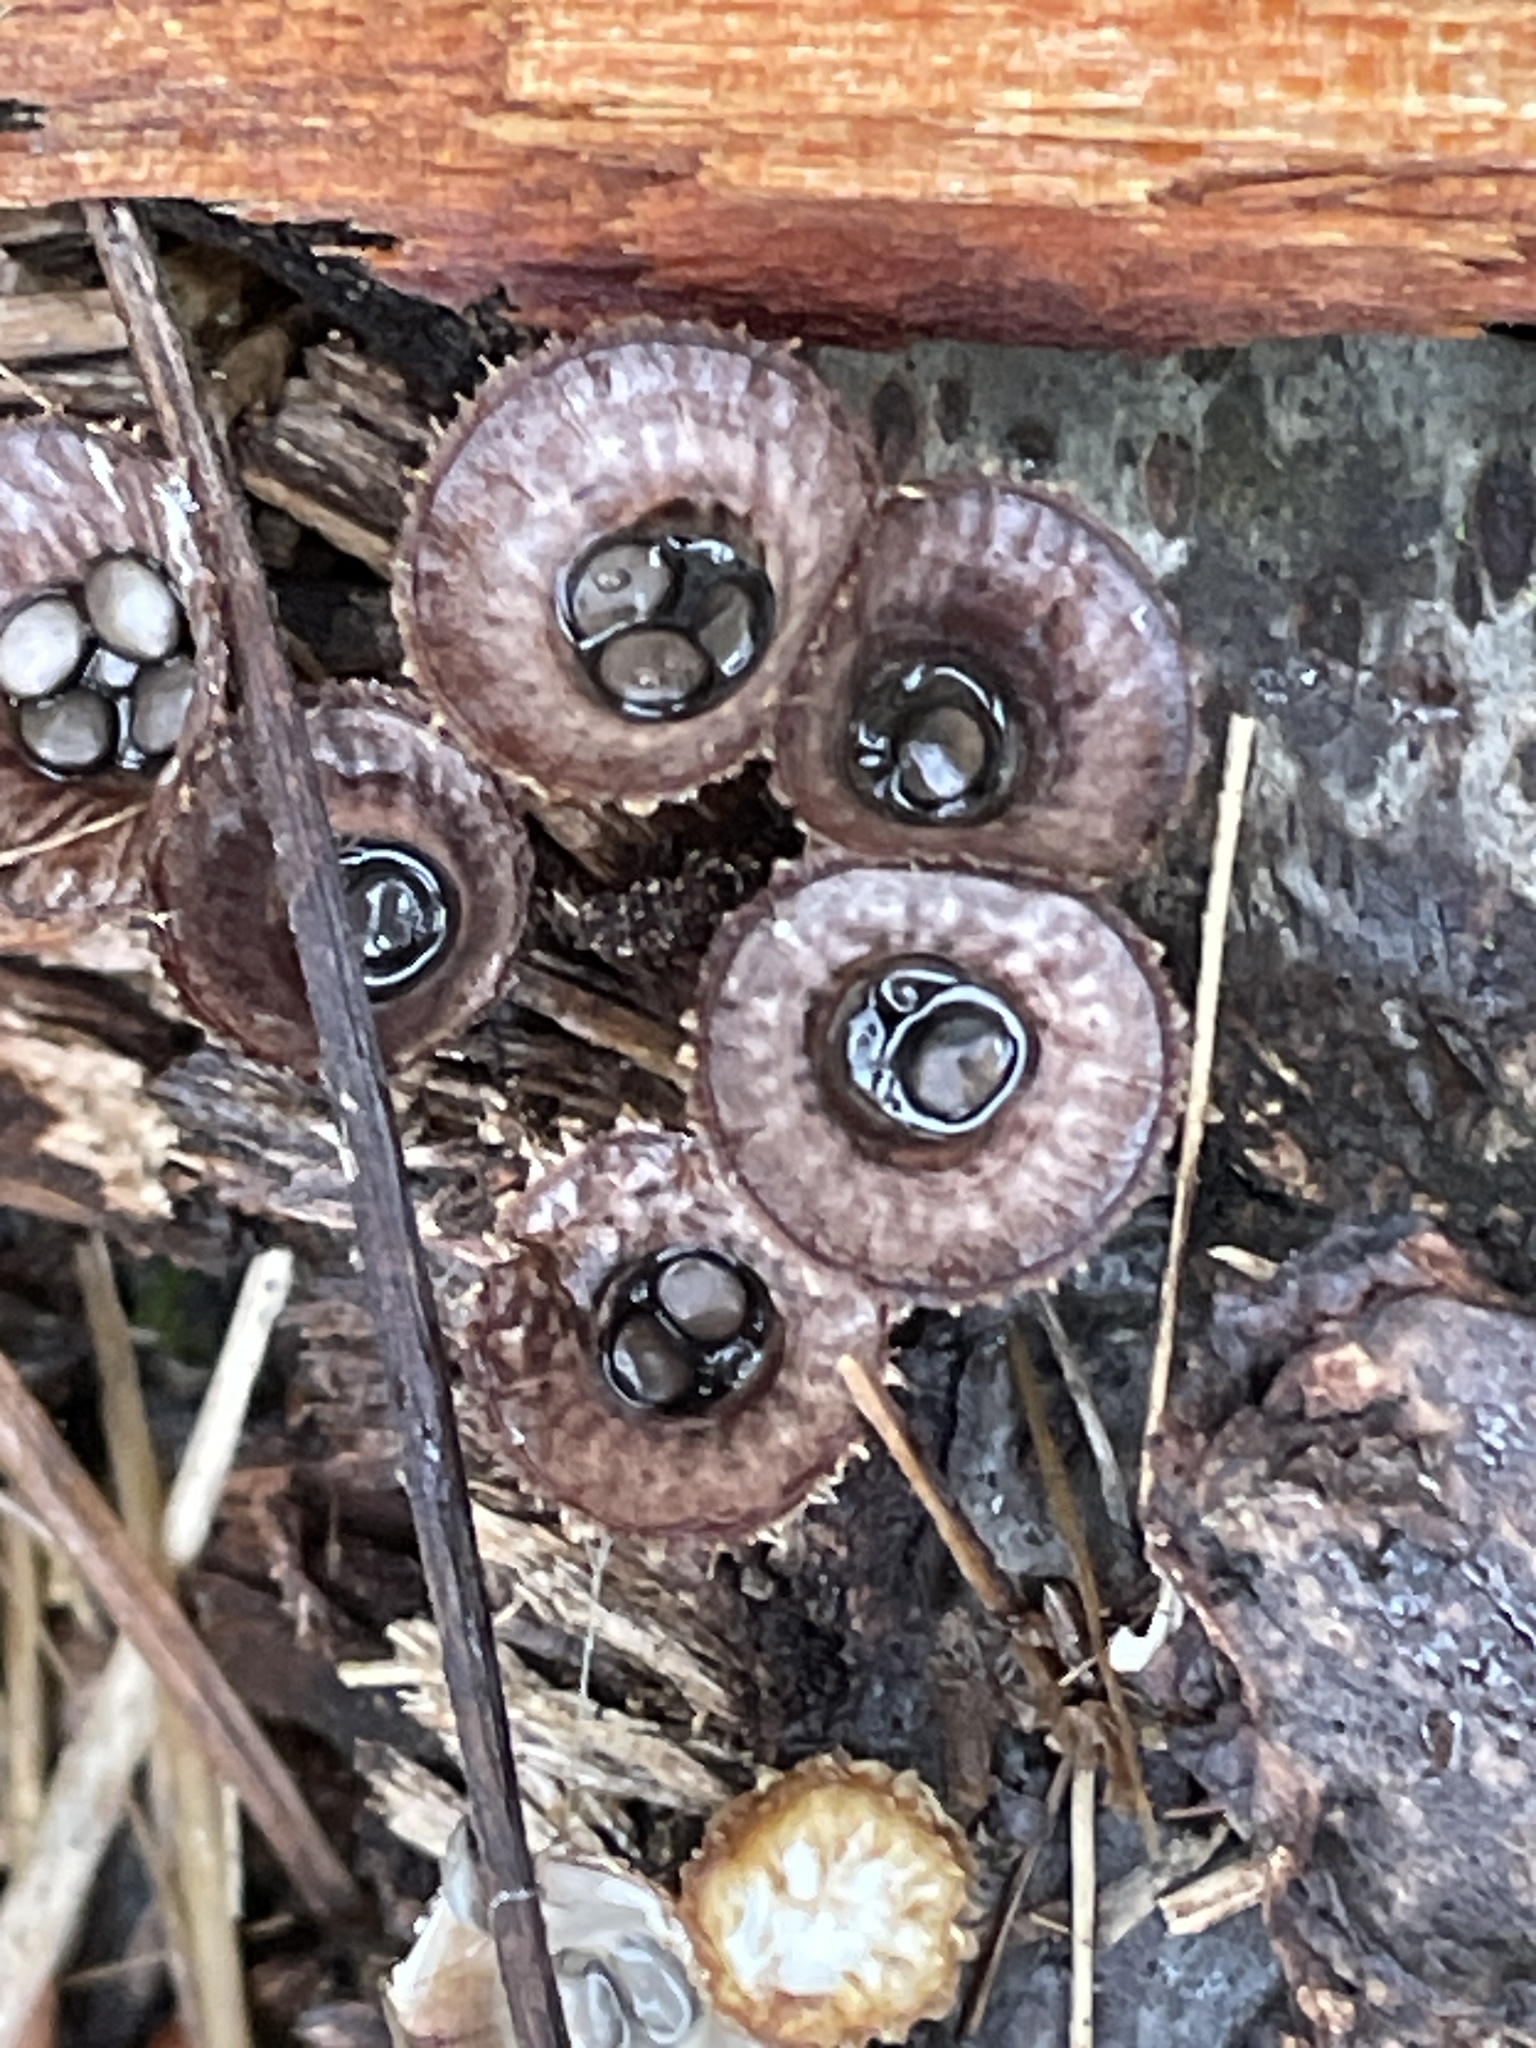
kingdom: Fungi
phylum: Basidiomycota
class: Agaricomycetes
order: Agaricales
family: Agaricaceae
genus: Cyathus
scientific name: Cyathus striatus
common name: Fluted bird's nest
